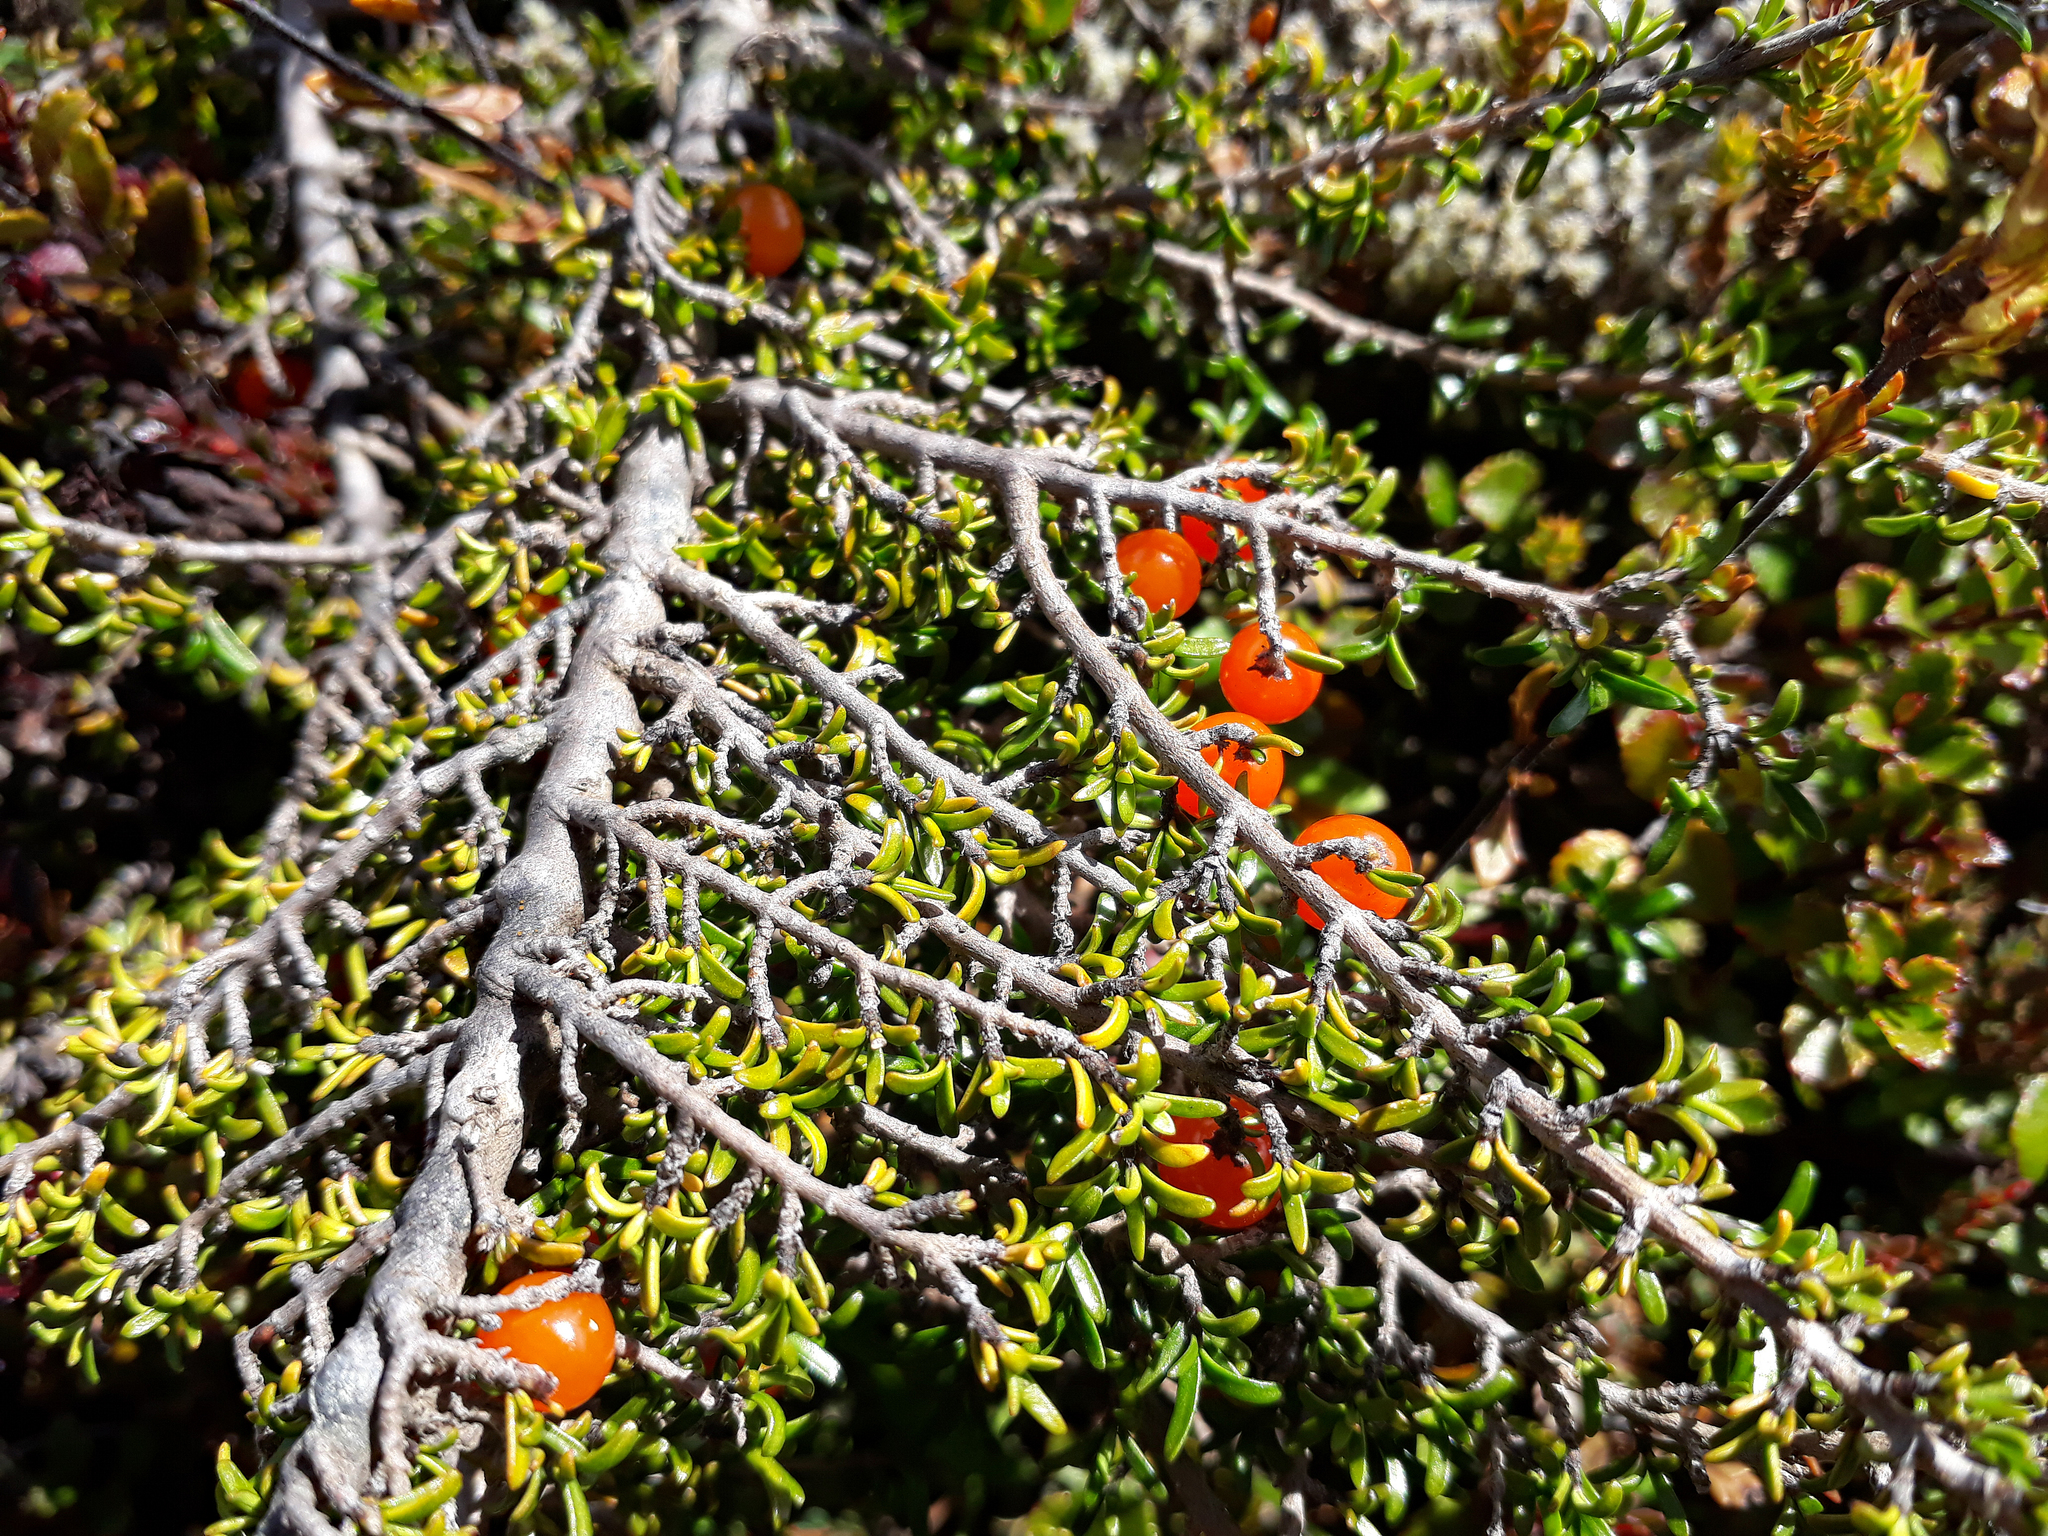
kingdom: Plantae
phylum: Tracheophyta
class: Magnoliopsida
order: Gentianales
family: Rubiaceae
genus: Coprosma
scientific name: Coprosma cheesemanii
